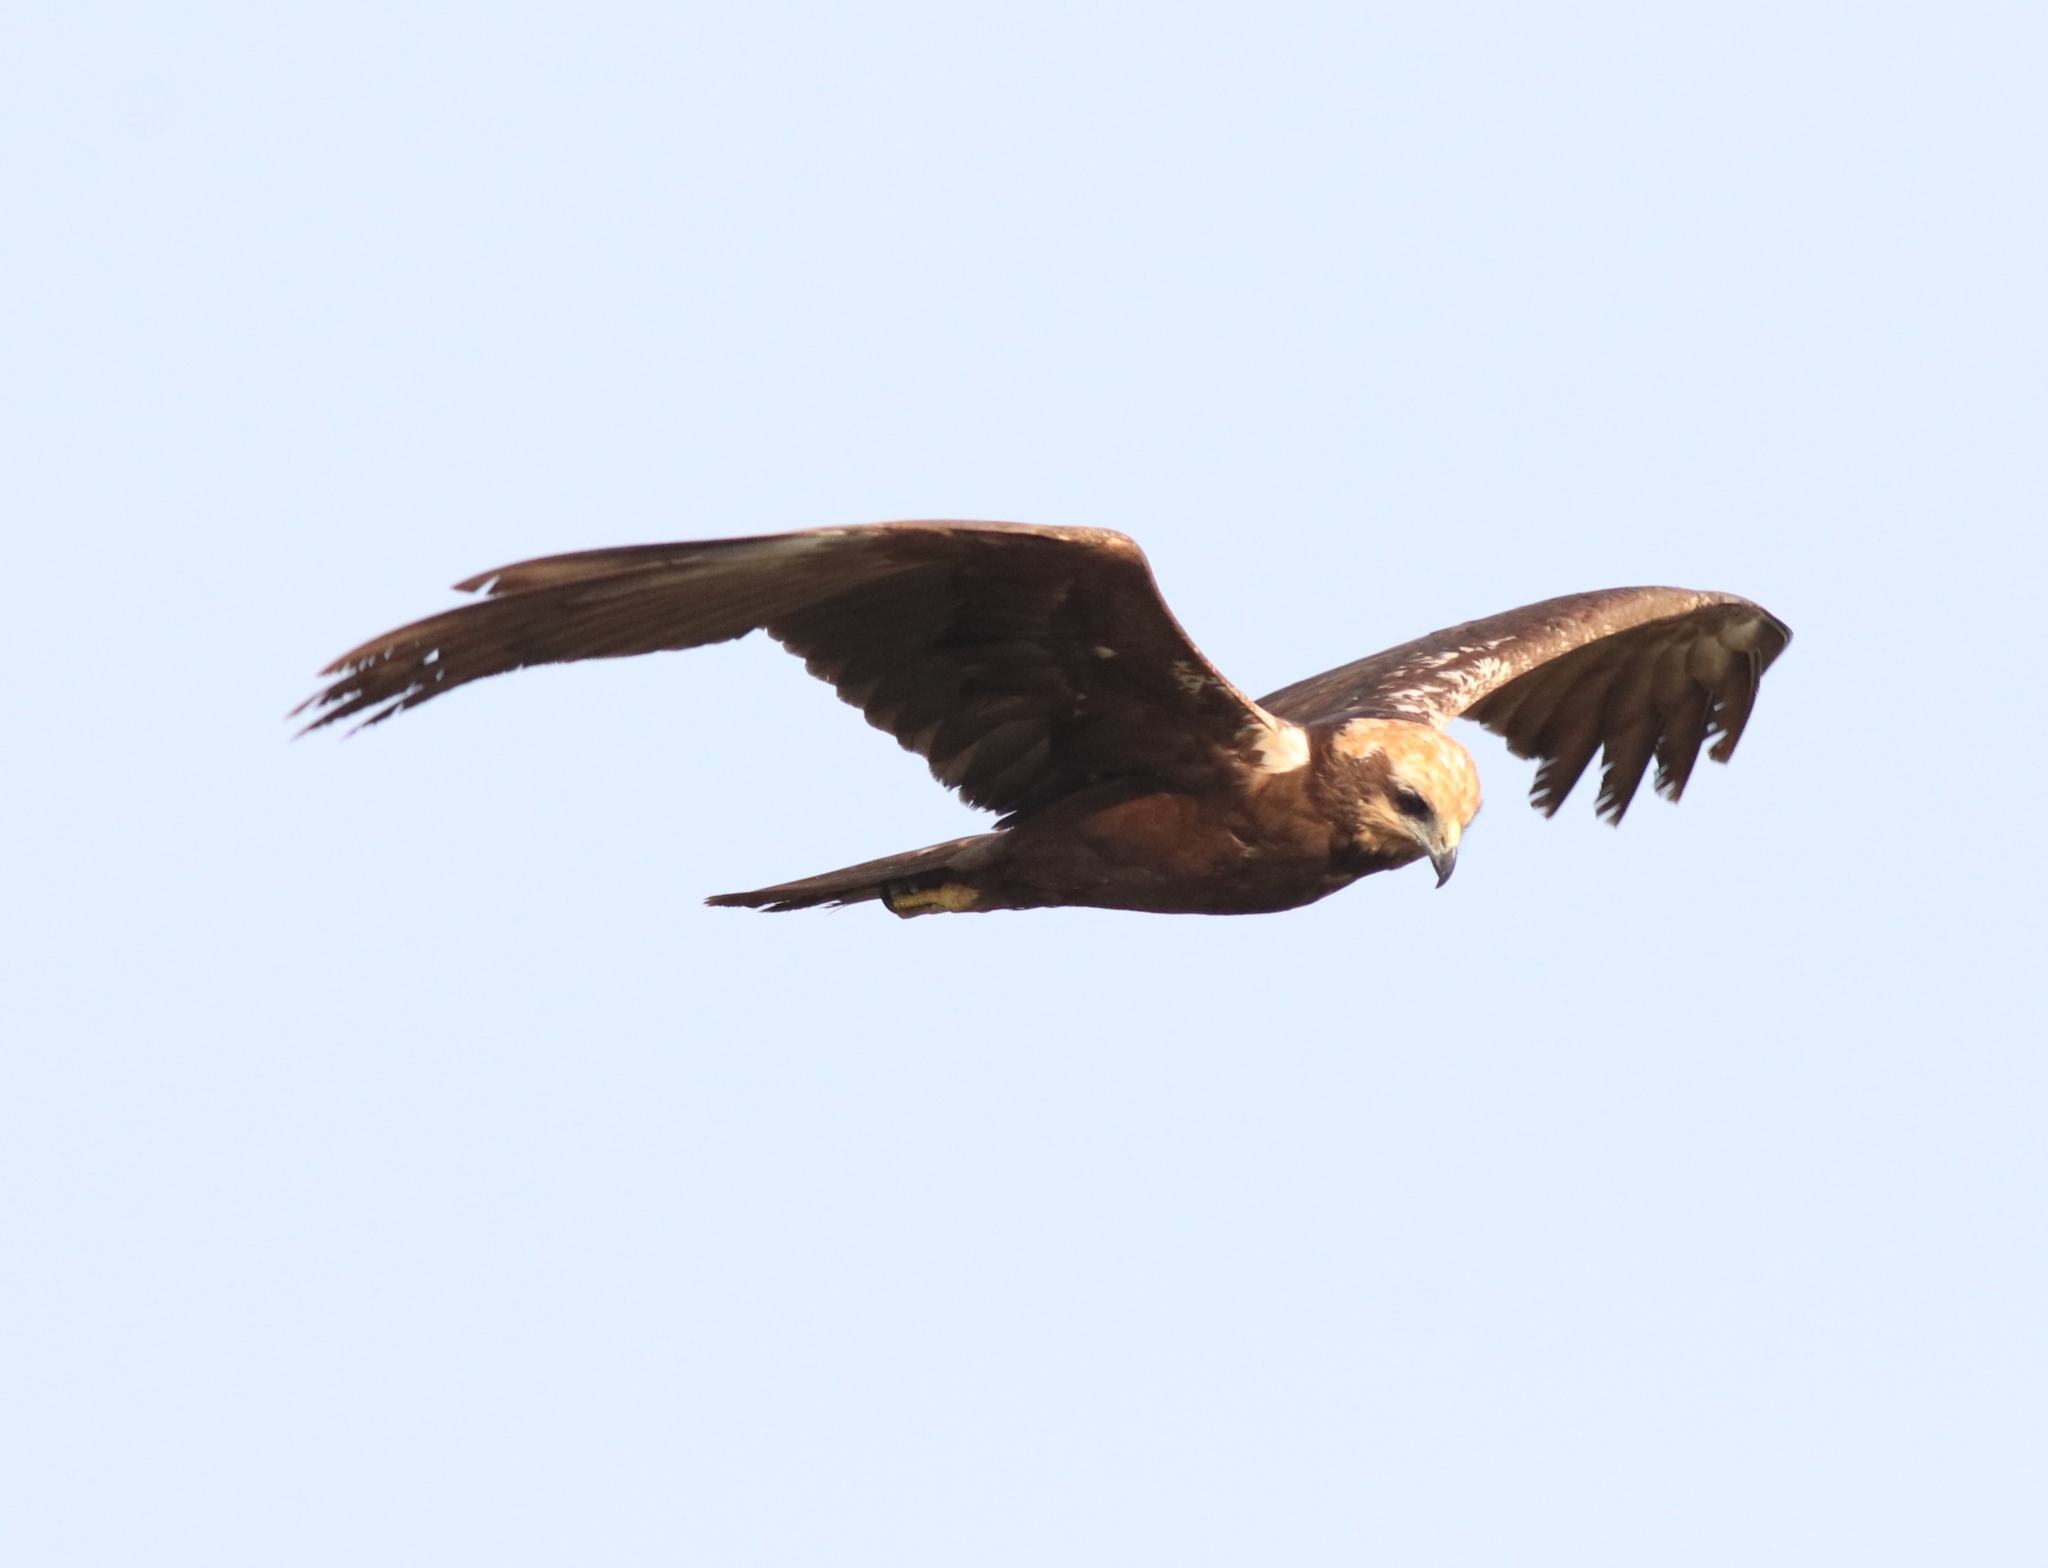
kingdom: Animalia
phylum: Chordata
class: Aves
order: Accipitriformes
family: Accipitridae
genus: Circus
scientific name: Circus aeruginosus
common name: Western marsh harrier
